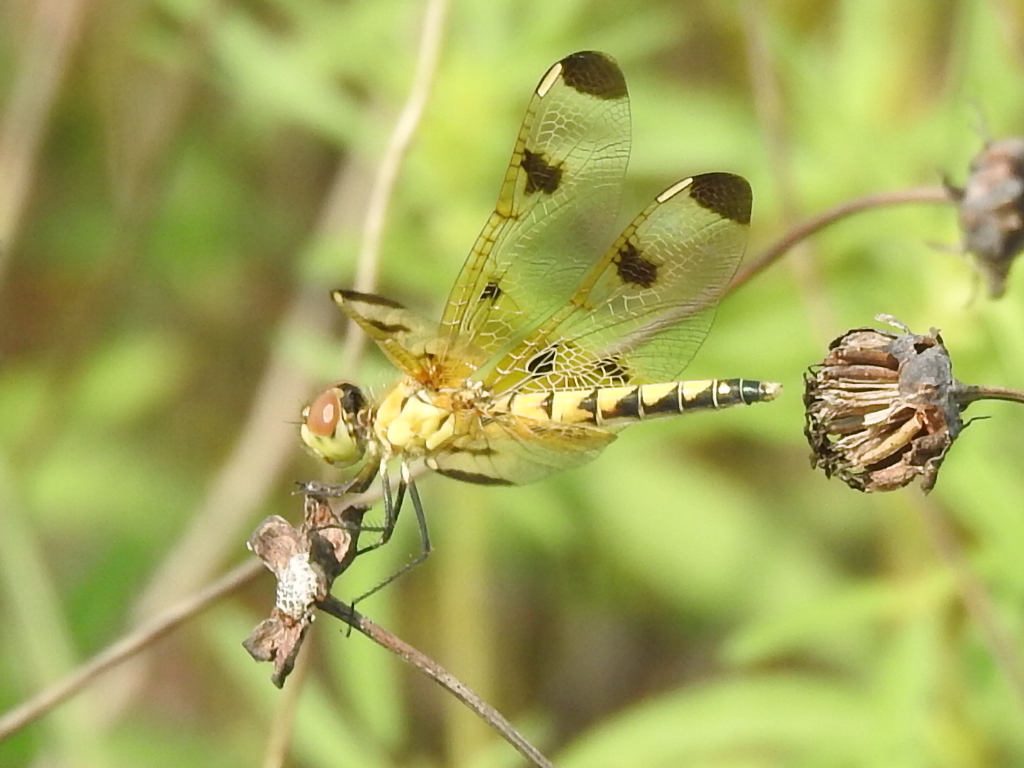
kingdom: Animalia
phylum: Arthropoda
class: Insecta
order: Odonata
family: Libellulidae
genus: Celithemis
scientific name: Celithemis elisa
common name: Calico pennant
